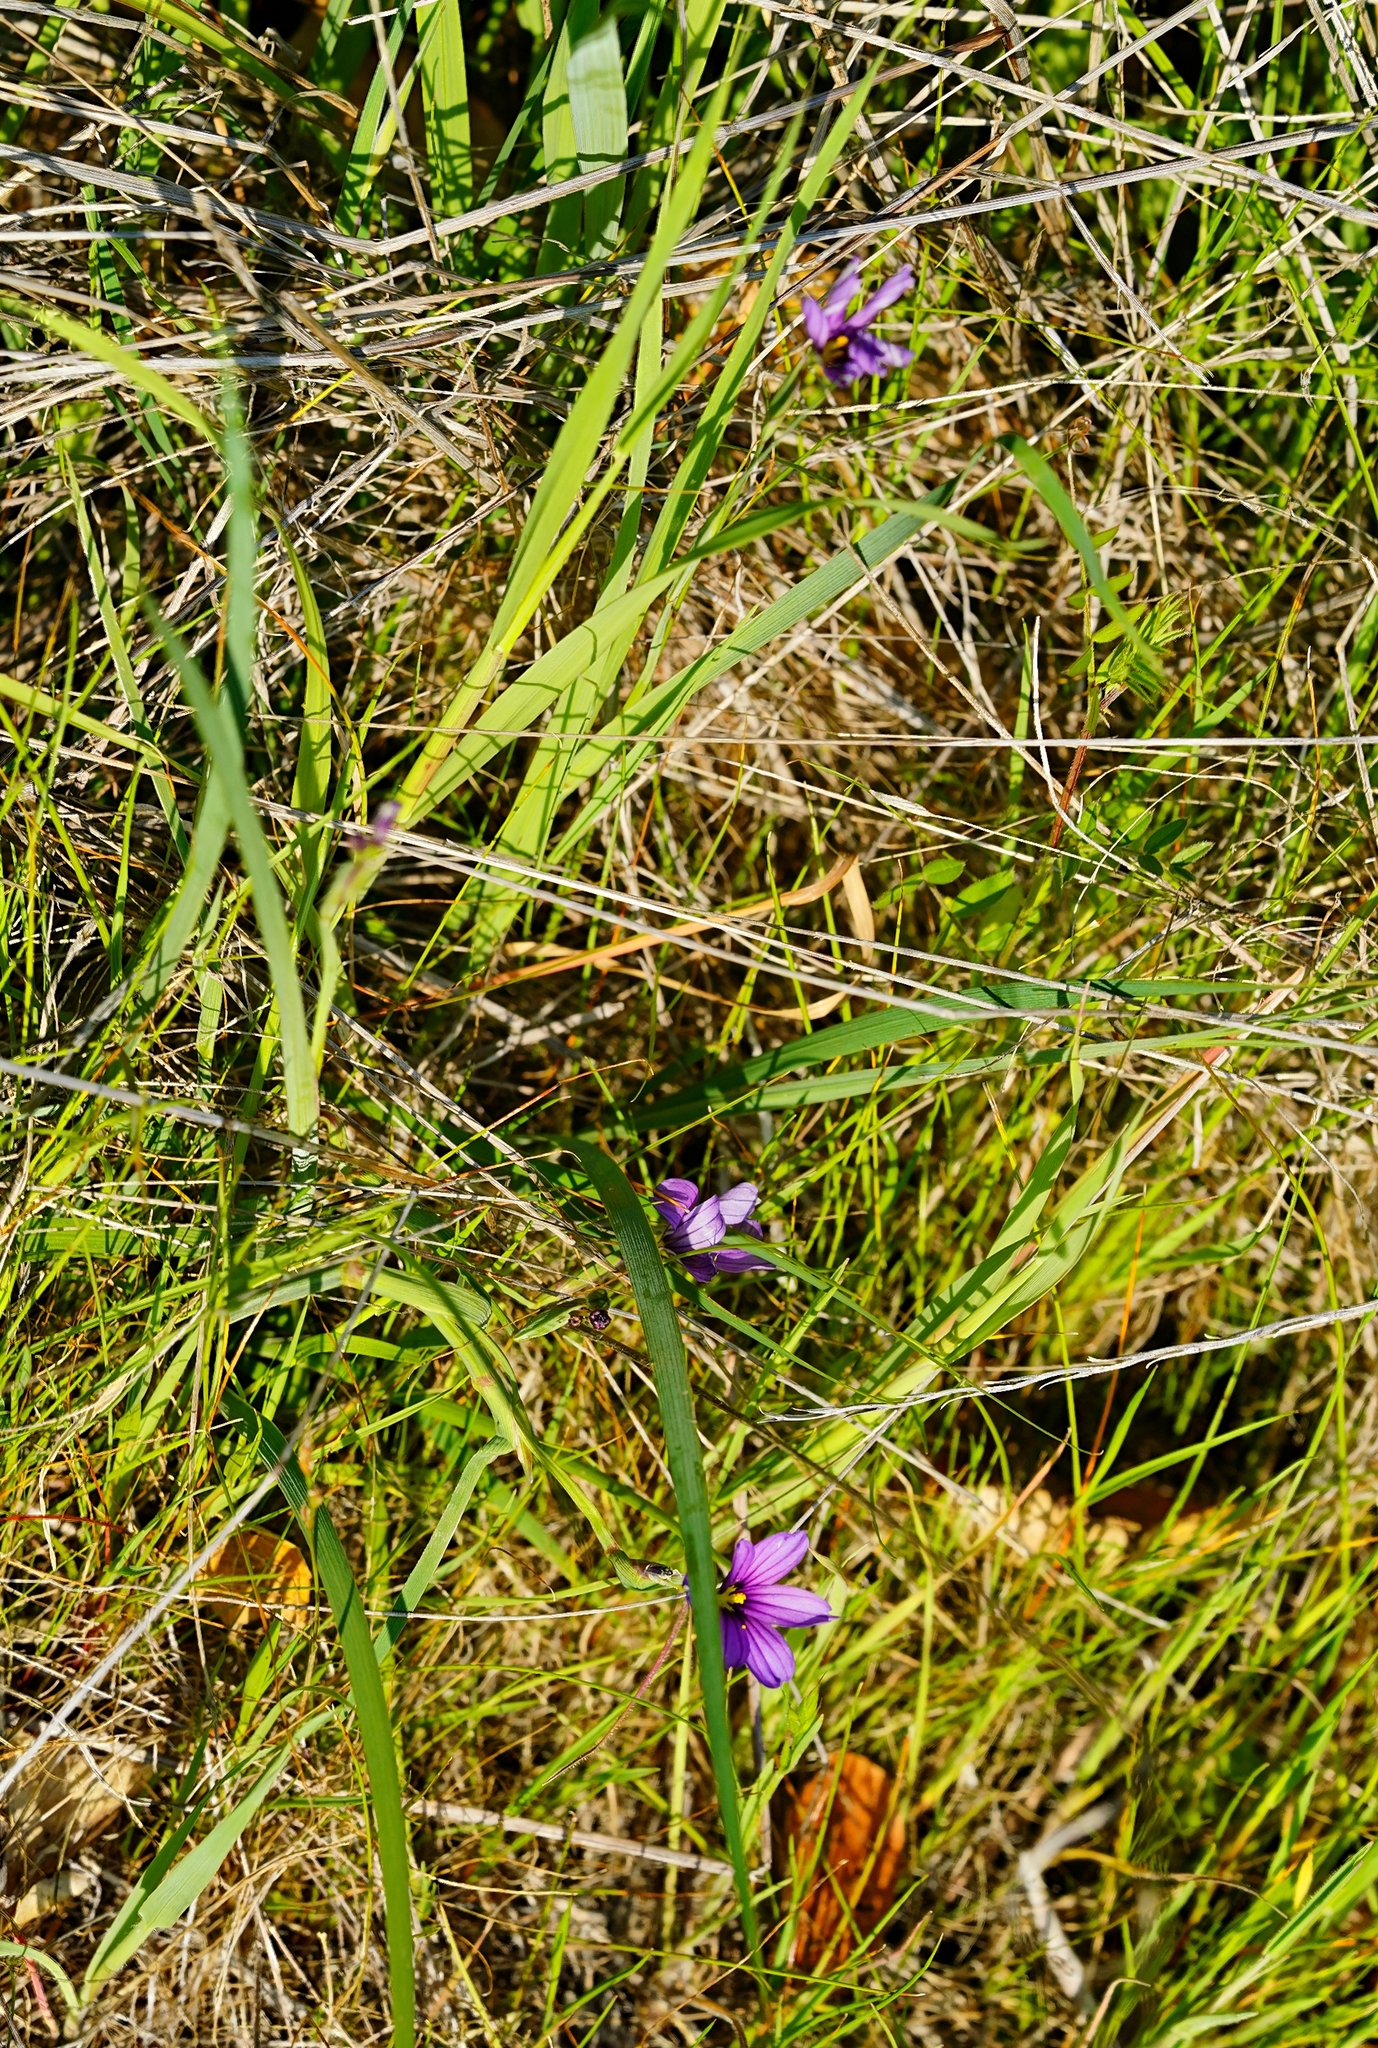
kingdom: Plantae
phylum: Tracheophyta
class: Liliopsida
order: Asparagales
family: Iridaceae
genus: Sisyrinchium
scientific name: Sisyrinchium bellum
